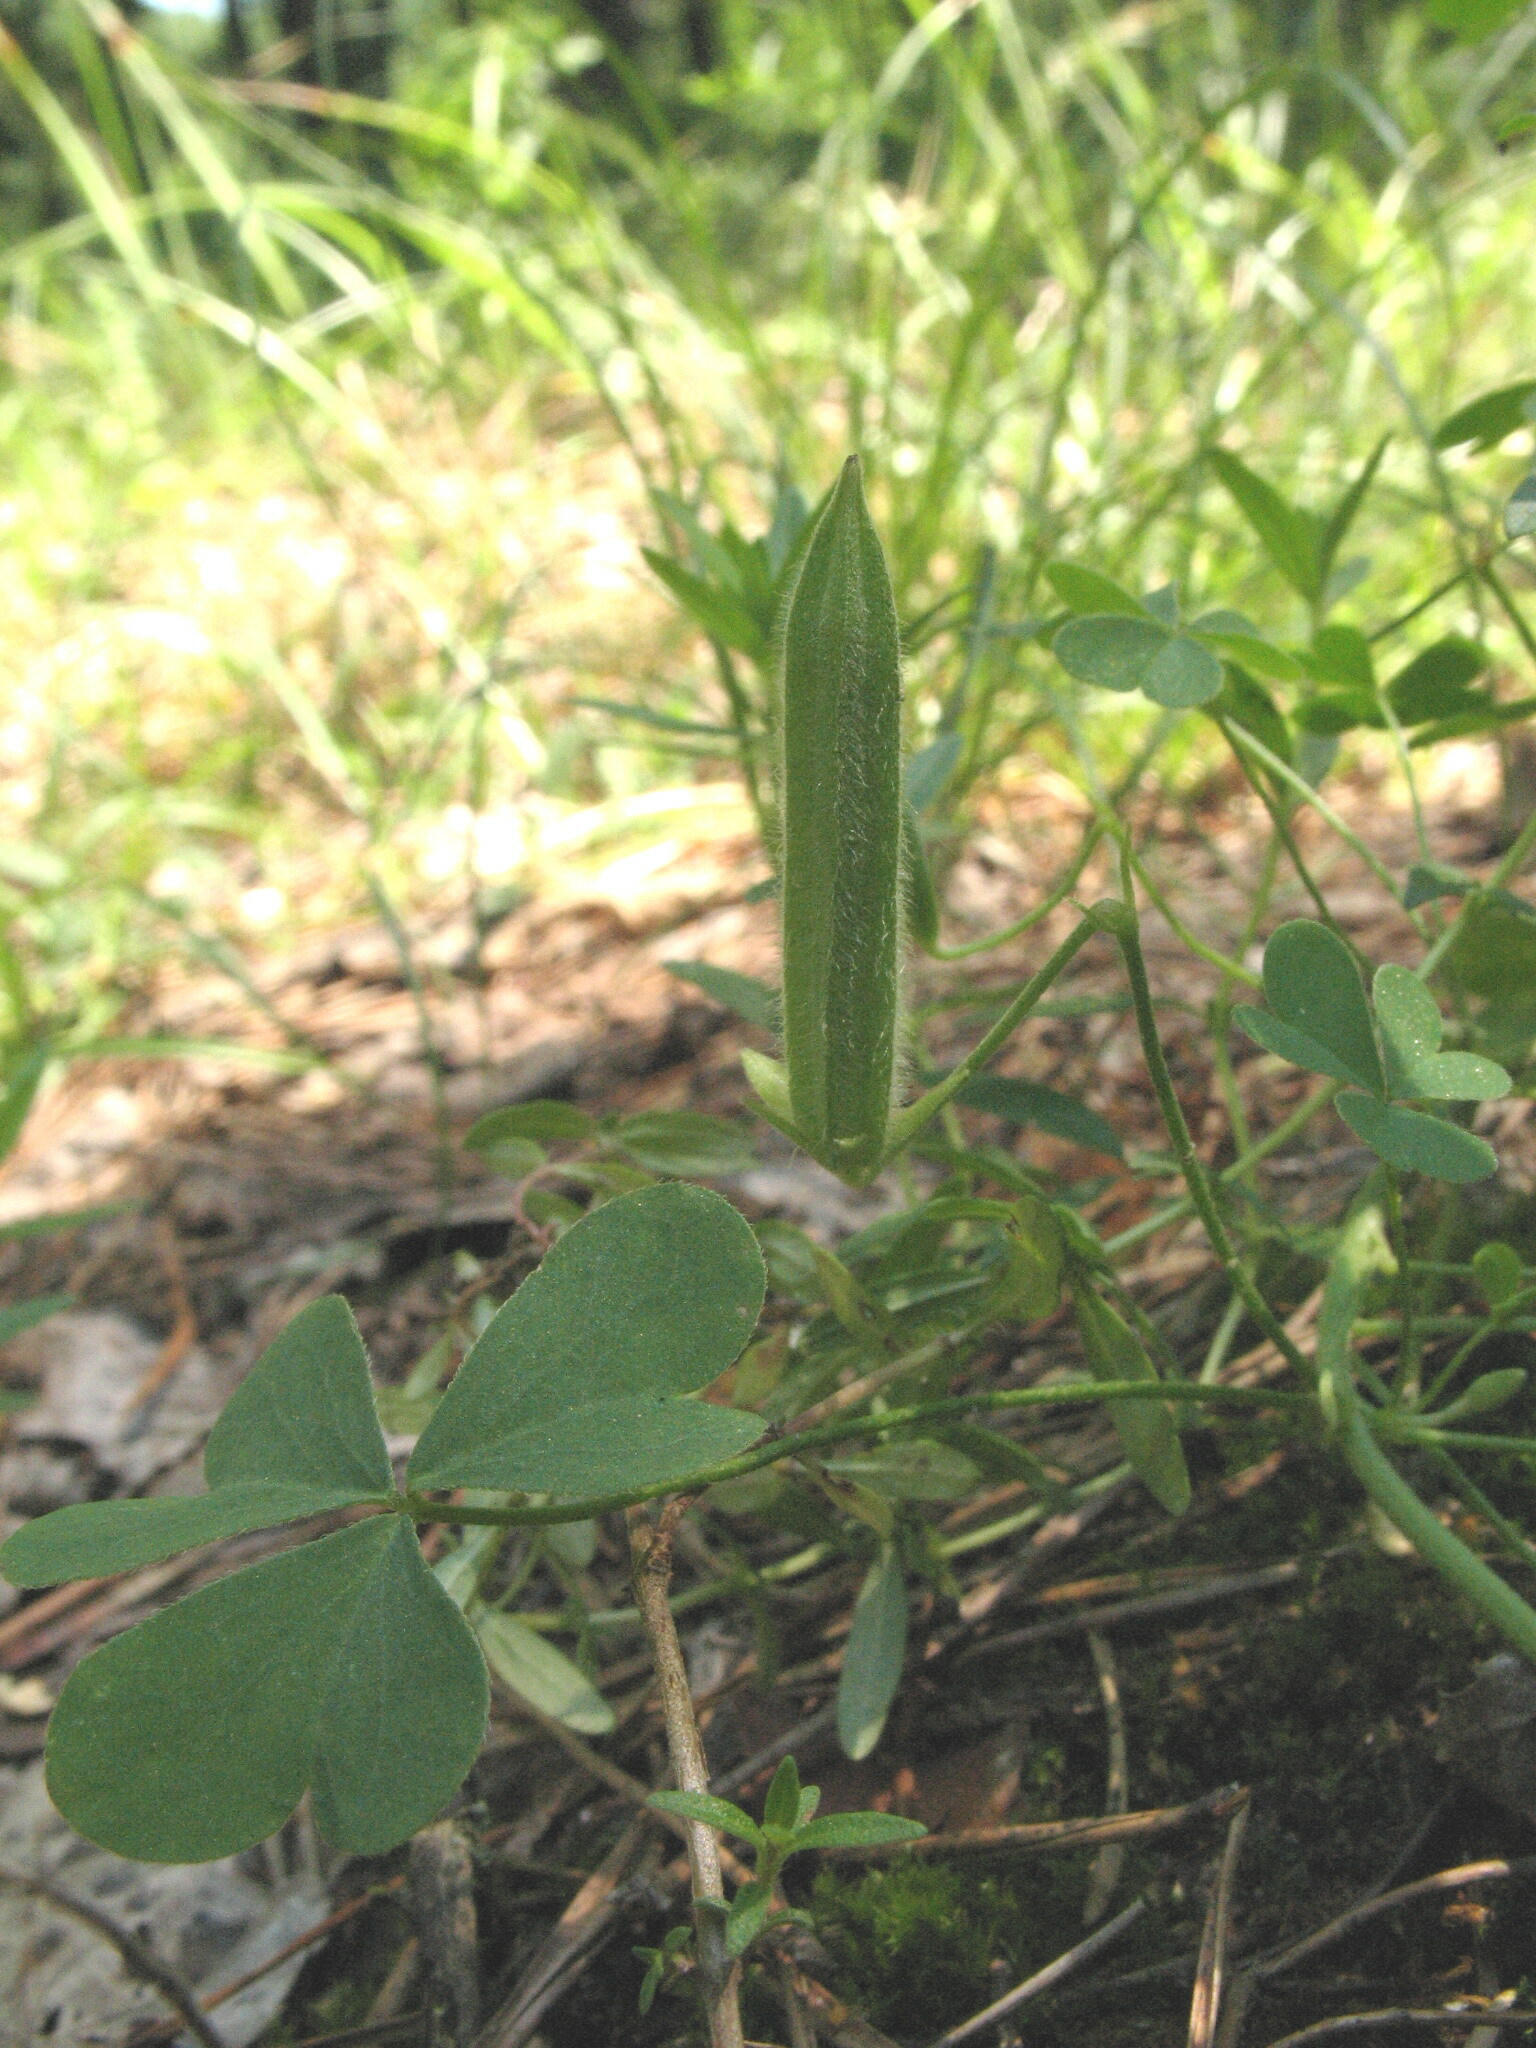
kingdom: Plantae
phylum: Tracheophyta
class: Magnoliopsida
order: Oxalidales
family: Oxalidaceae
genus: Oxalis
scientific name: Oxalis dillenii
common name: Sussex yellow-sorrel
